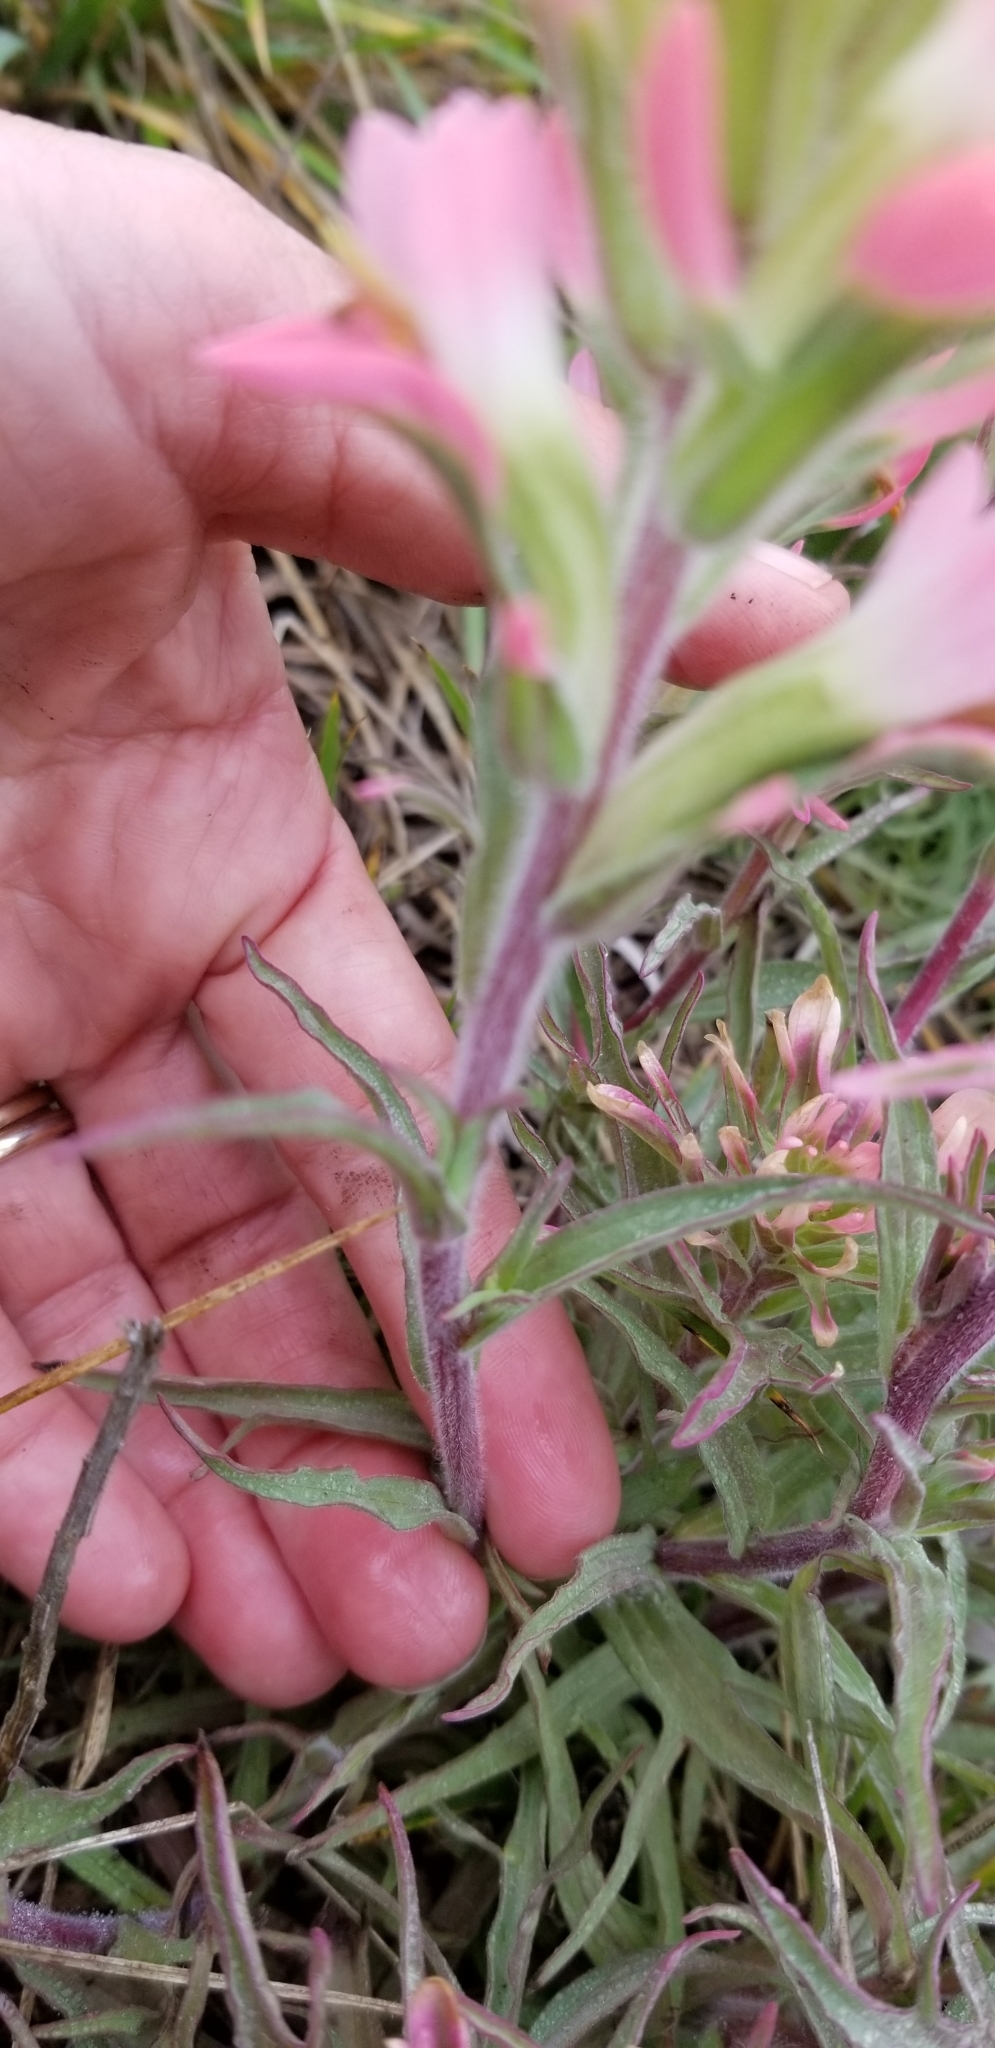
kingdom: Plantae
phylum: Tracheophyta
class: Magnoliopsida
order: Lamiales
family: Orobanchaceae
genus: Castilleja
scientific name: Castilleja indivisa
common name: Texas paintbrush
